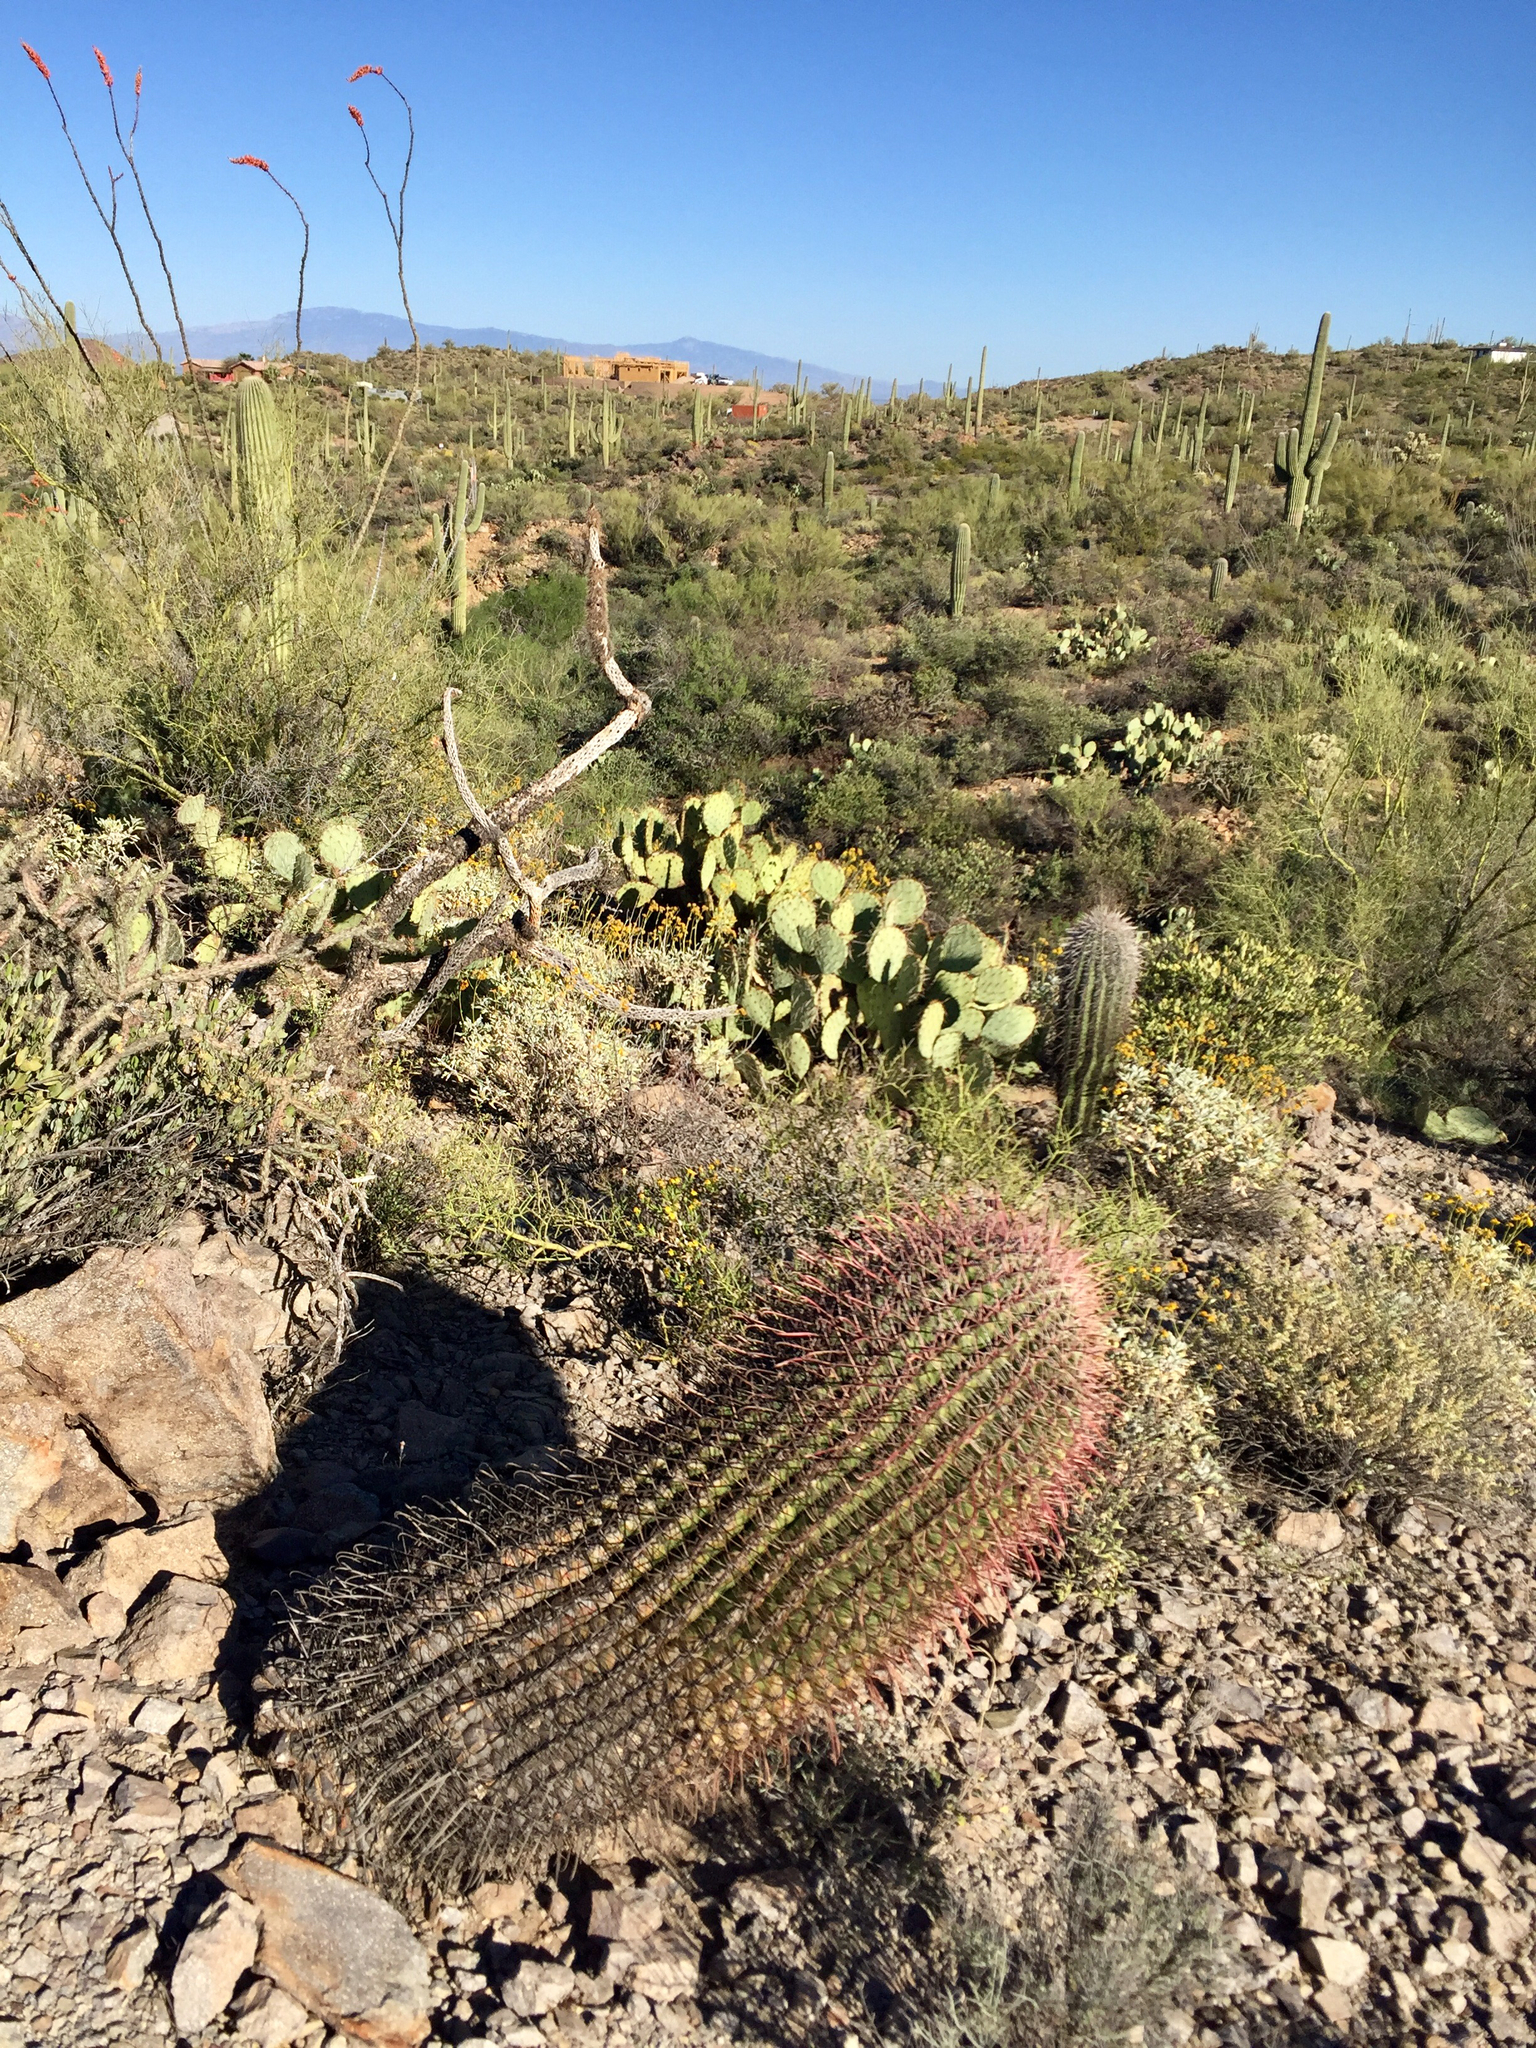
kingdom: Plantae
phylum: Tracheophyta
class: Magnoliopsida
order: Caryophyllales
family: Cactaceae
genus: Ferocactus
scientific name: Ferocactus wislizeni
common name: Candy barrel cactus
